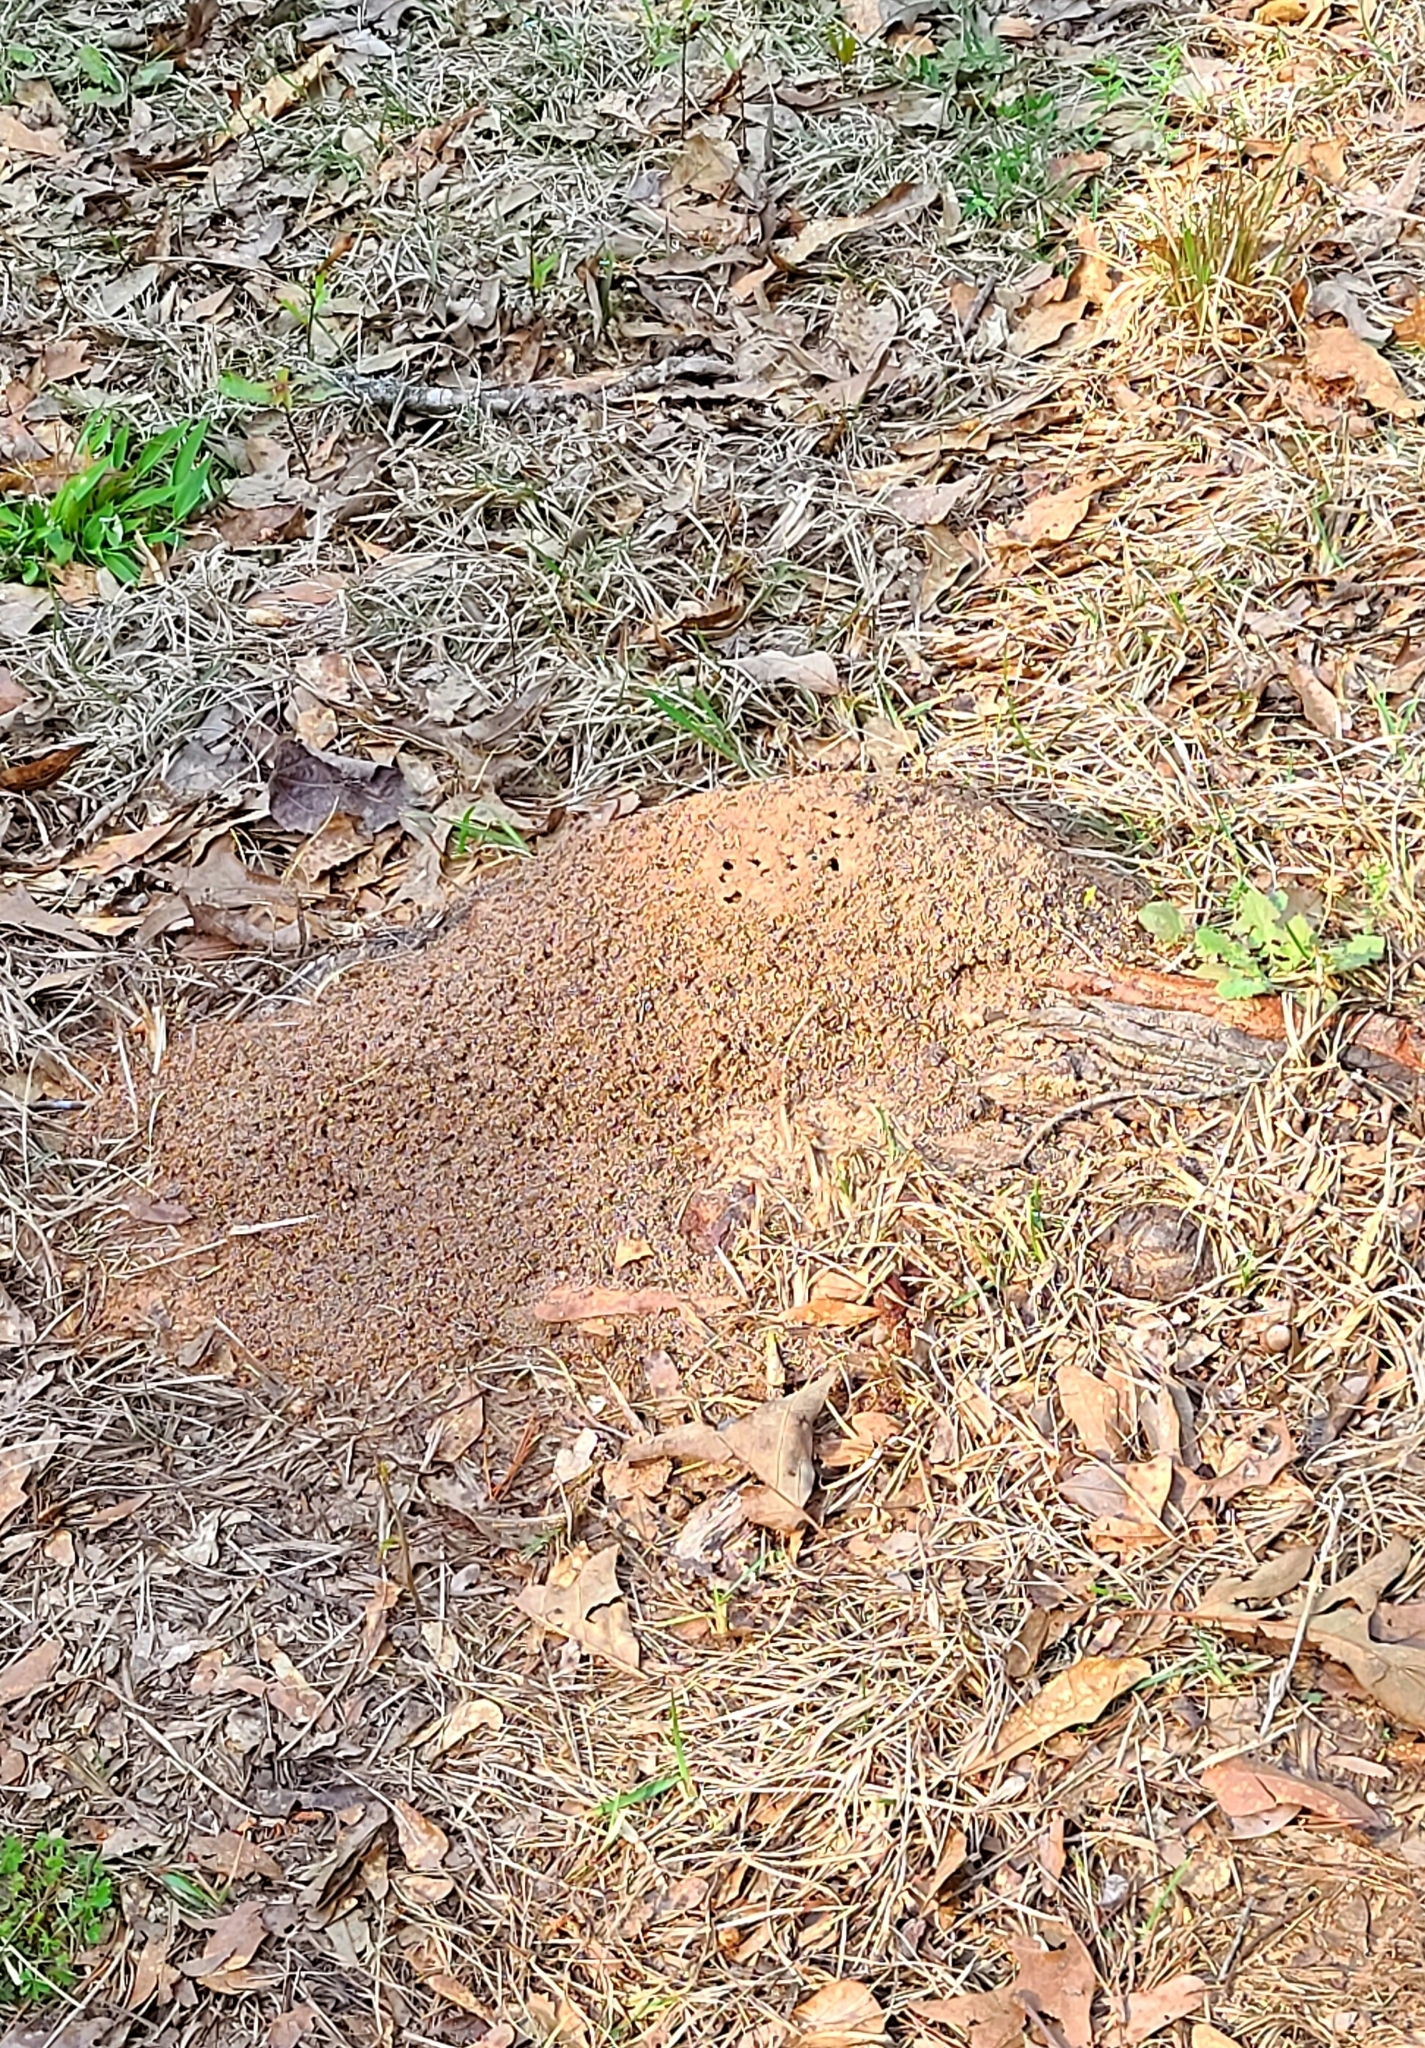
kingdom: Animalia
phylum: Arthropoda
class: Insecta
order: Hymenoptera
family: Formicidae
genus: Solenopsis
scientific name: Solenopsis invicta
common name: Red imported fire ant
